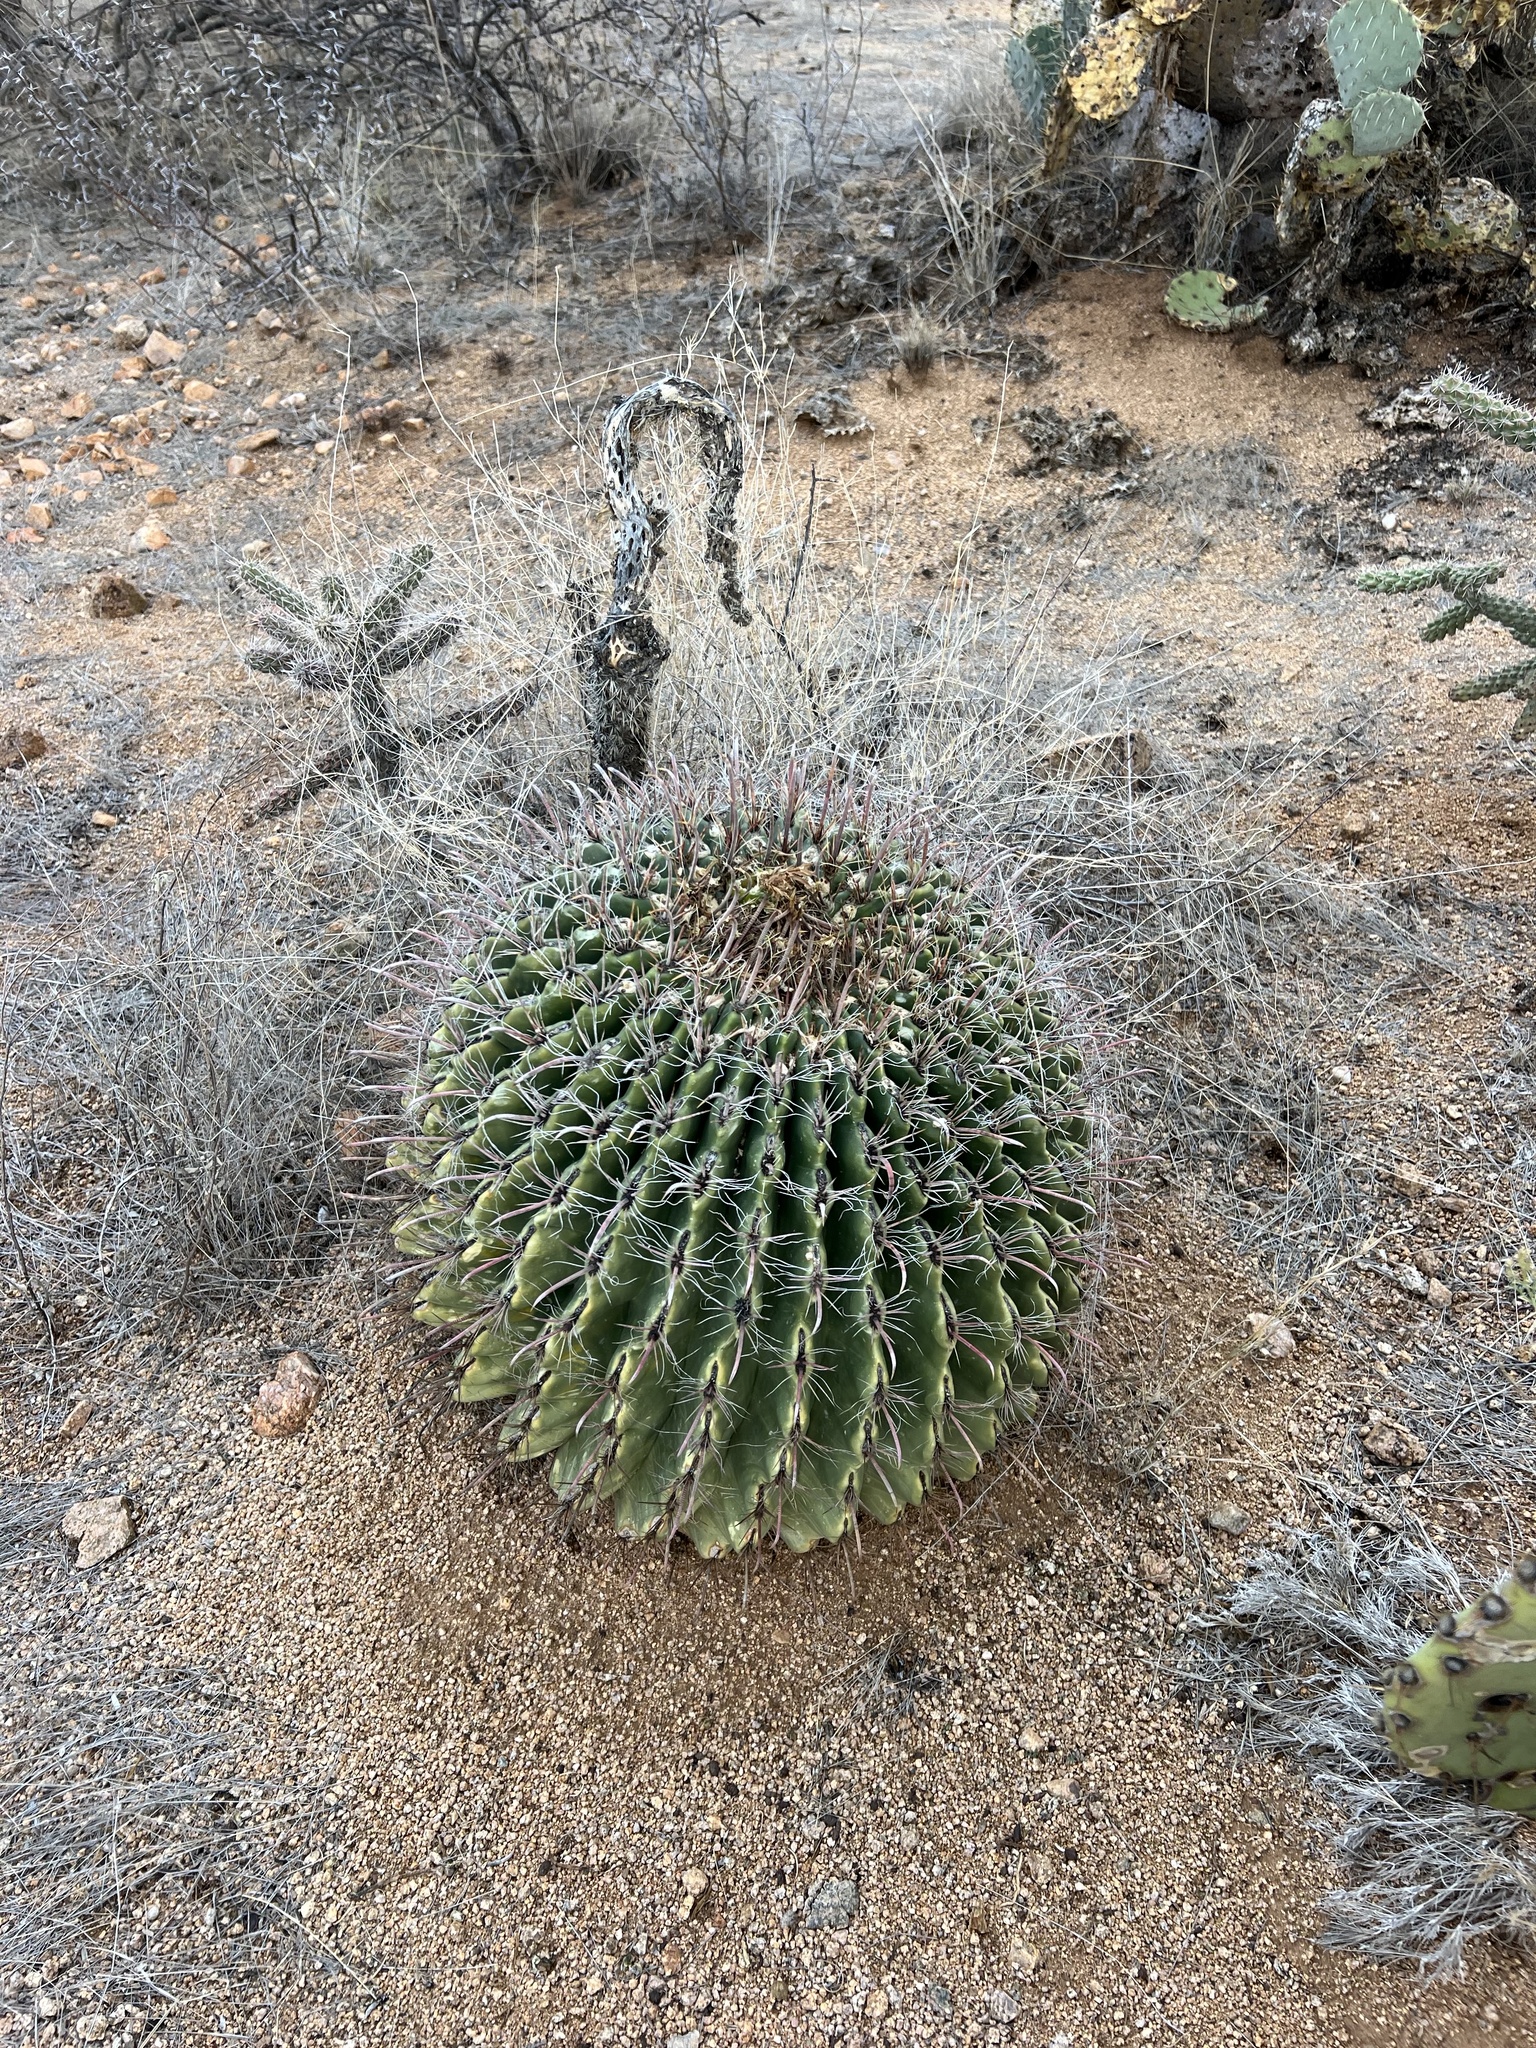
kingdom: Plantae
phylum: Tracheophyta
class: Magnoliopsida
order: Caryophyllales
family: Cactaceae
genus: Ferocactus
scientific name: Ferocactus wislizeni
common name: Candy barrel cactus
